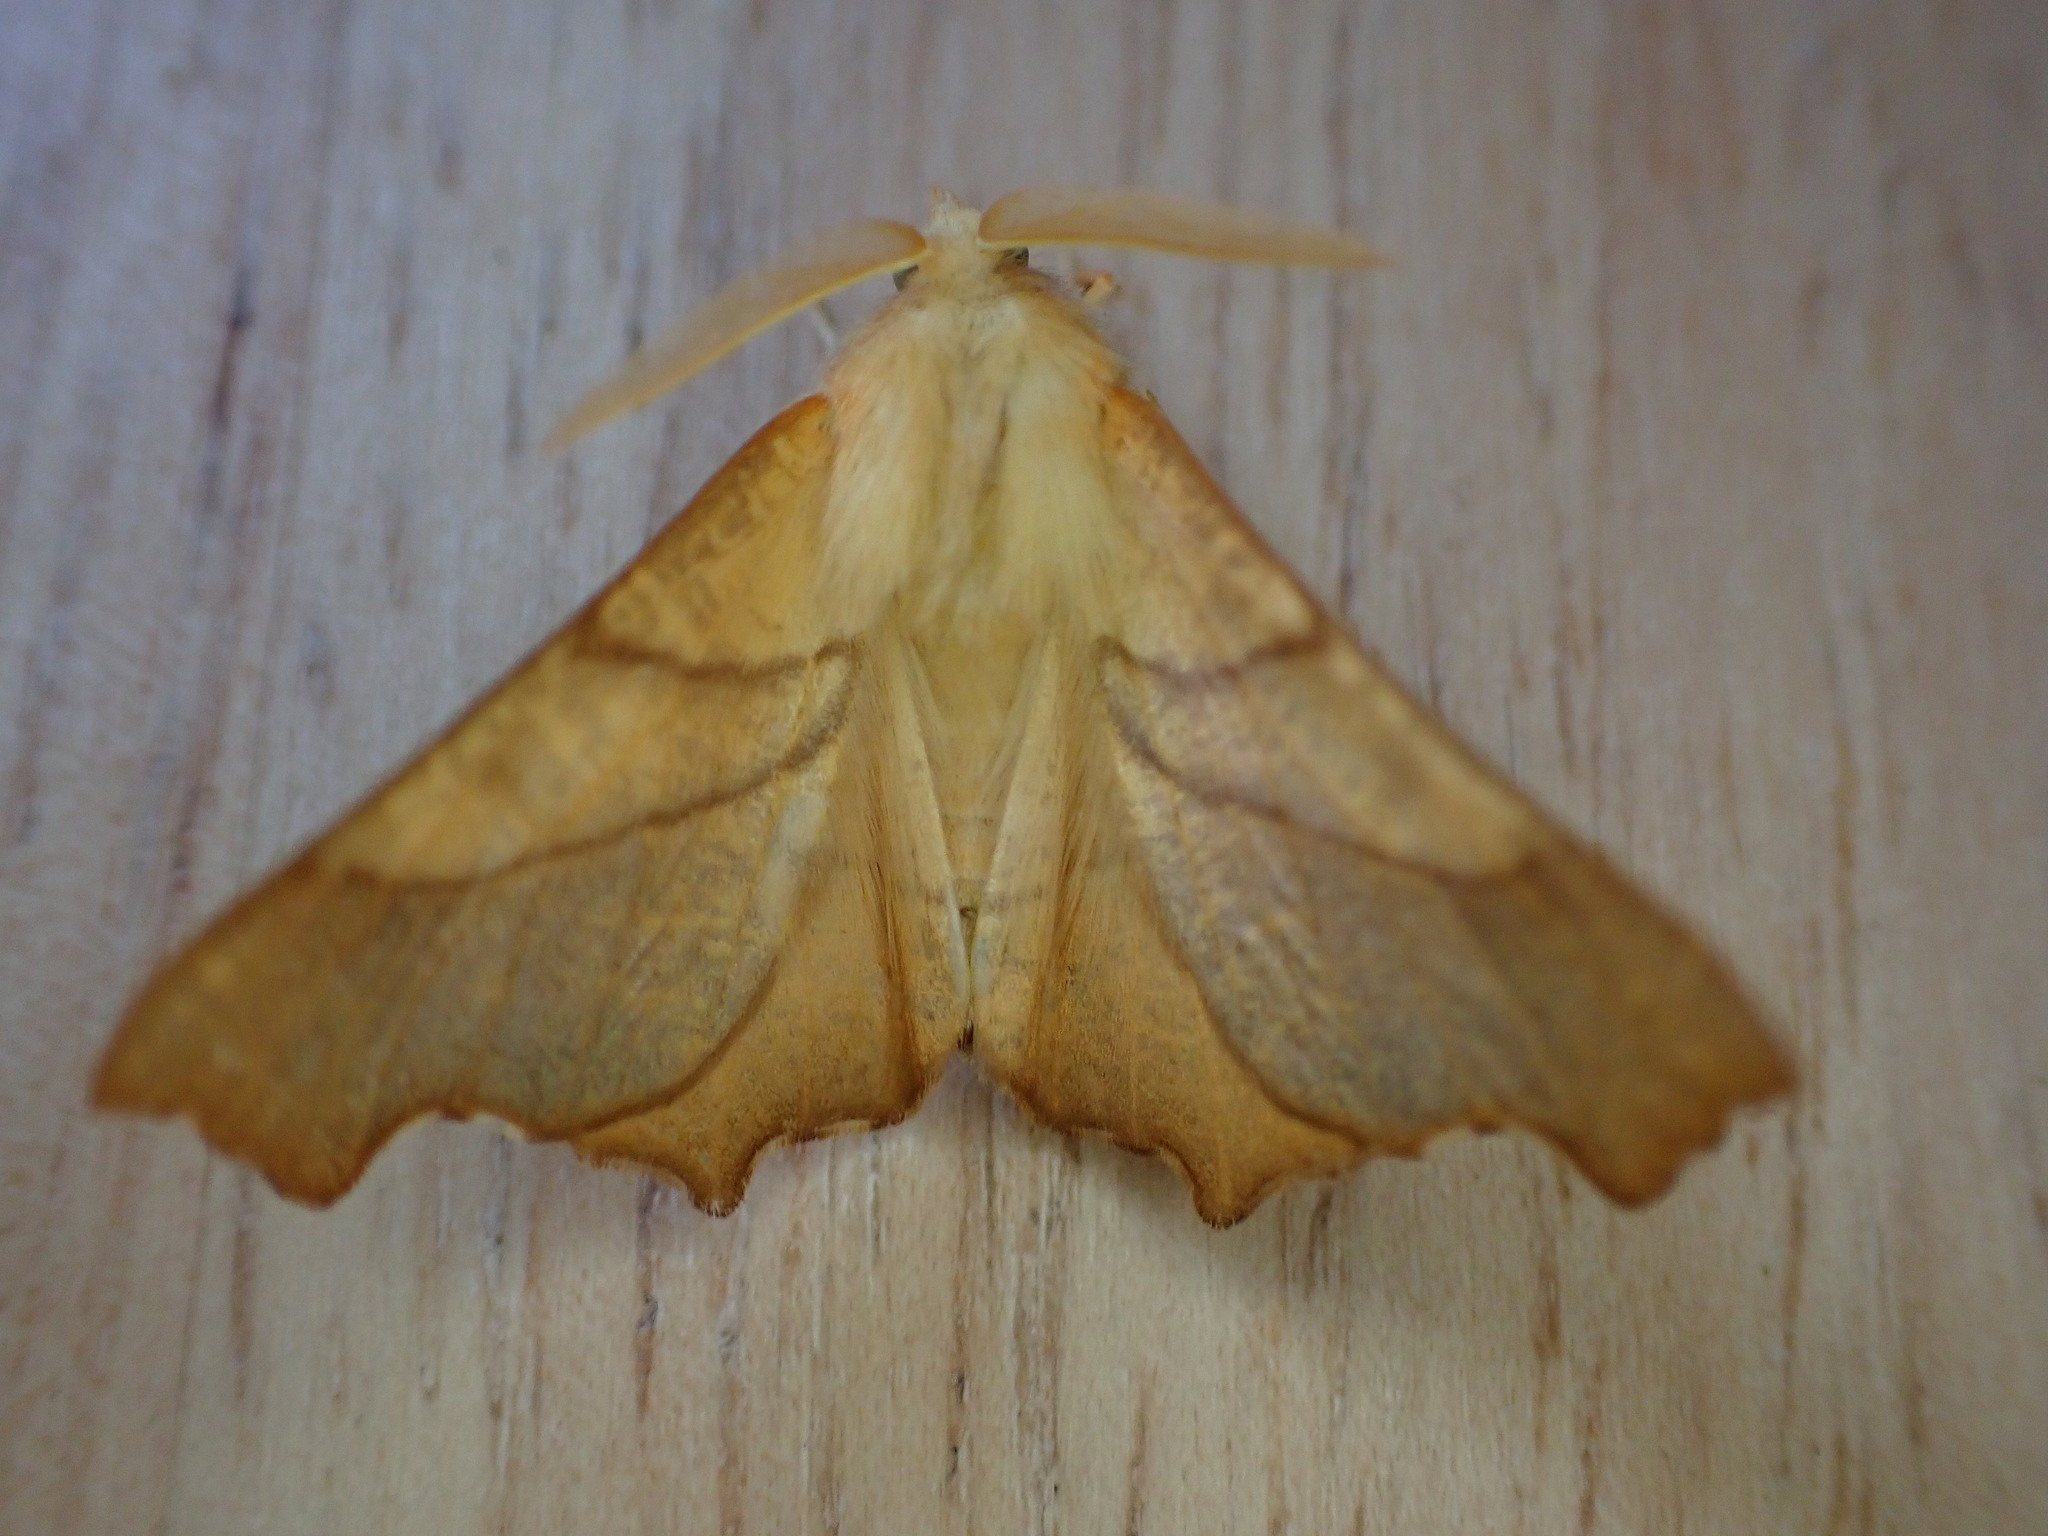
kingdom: Animalia
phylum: Arthropoda
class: Insecta
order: Lepidoptera
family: Geometridae
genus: Ennomos
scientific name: Ennomos fuscantaria
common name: Dusky thorn
